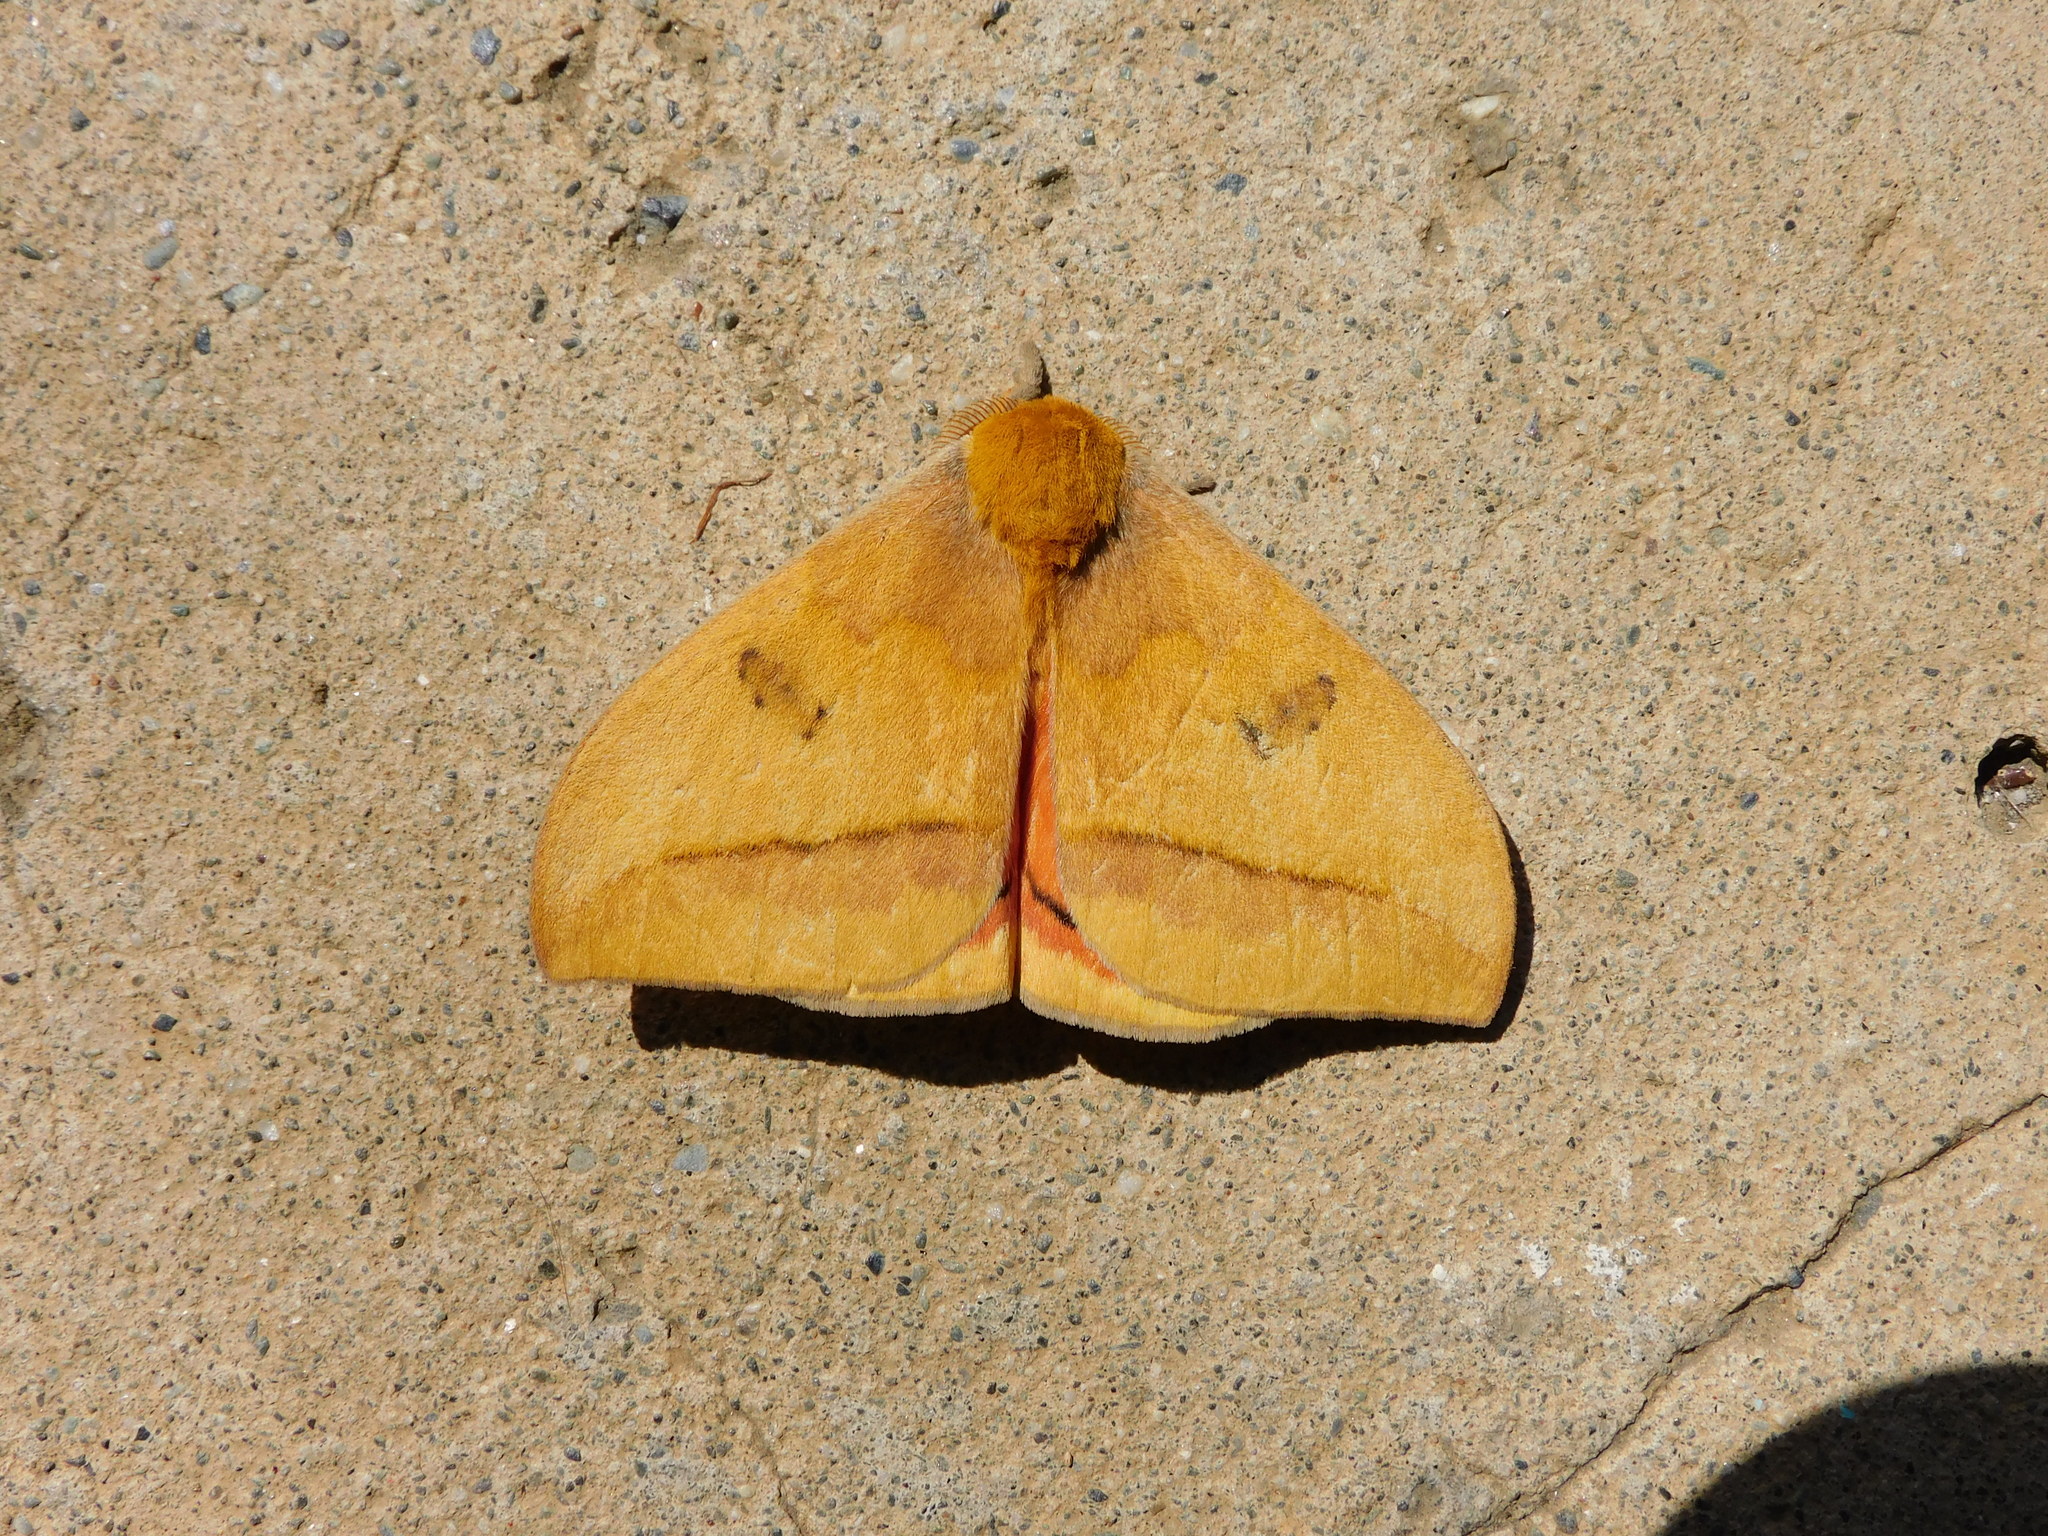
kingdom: Animalia
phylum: Arthropoda
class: Insecta
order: Lepidoptera
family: Saturniidae
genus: Automeris
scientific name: Automeris jucunda
